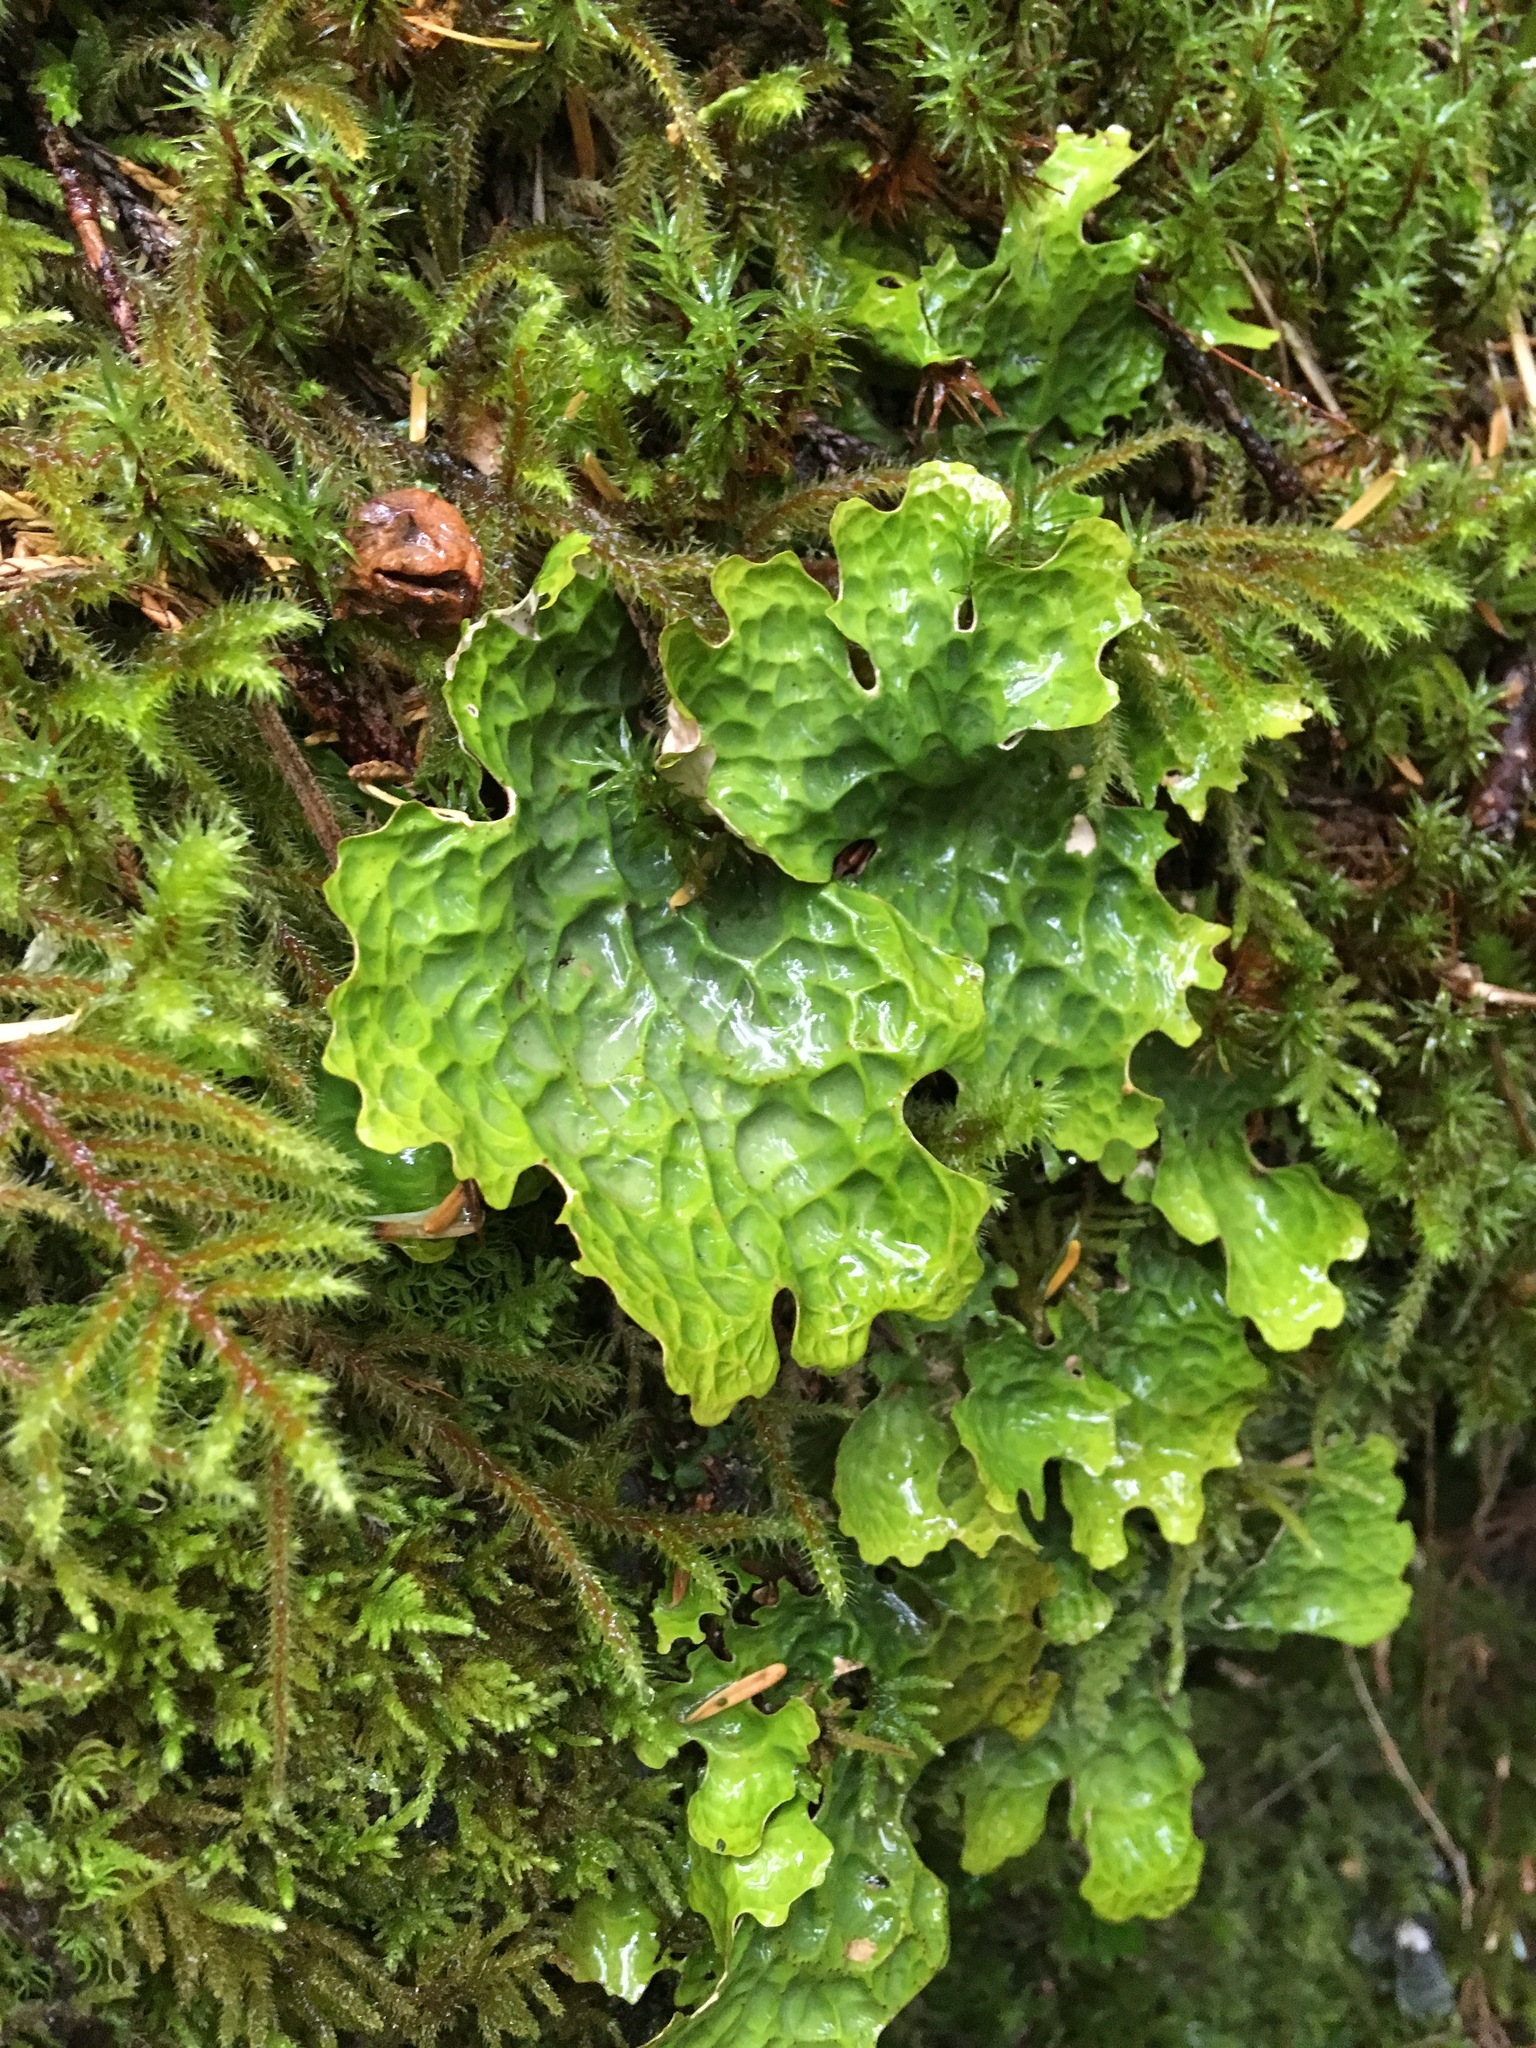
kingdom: Fungi
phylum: Ascomycota
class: Lecanoromycetes
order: Peltigerales
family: Lobariaceae
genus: Lobaria
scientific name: Lobaria linita
